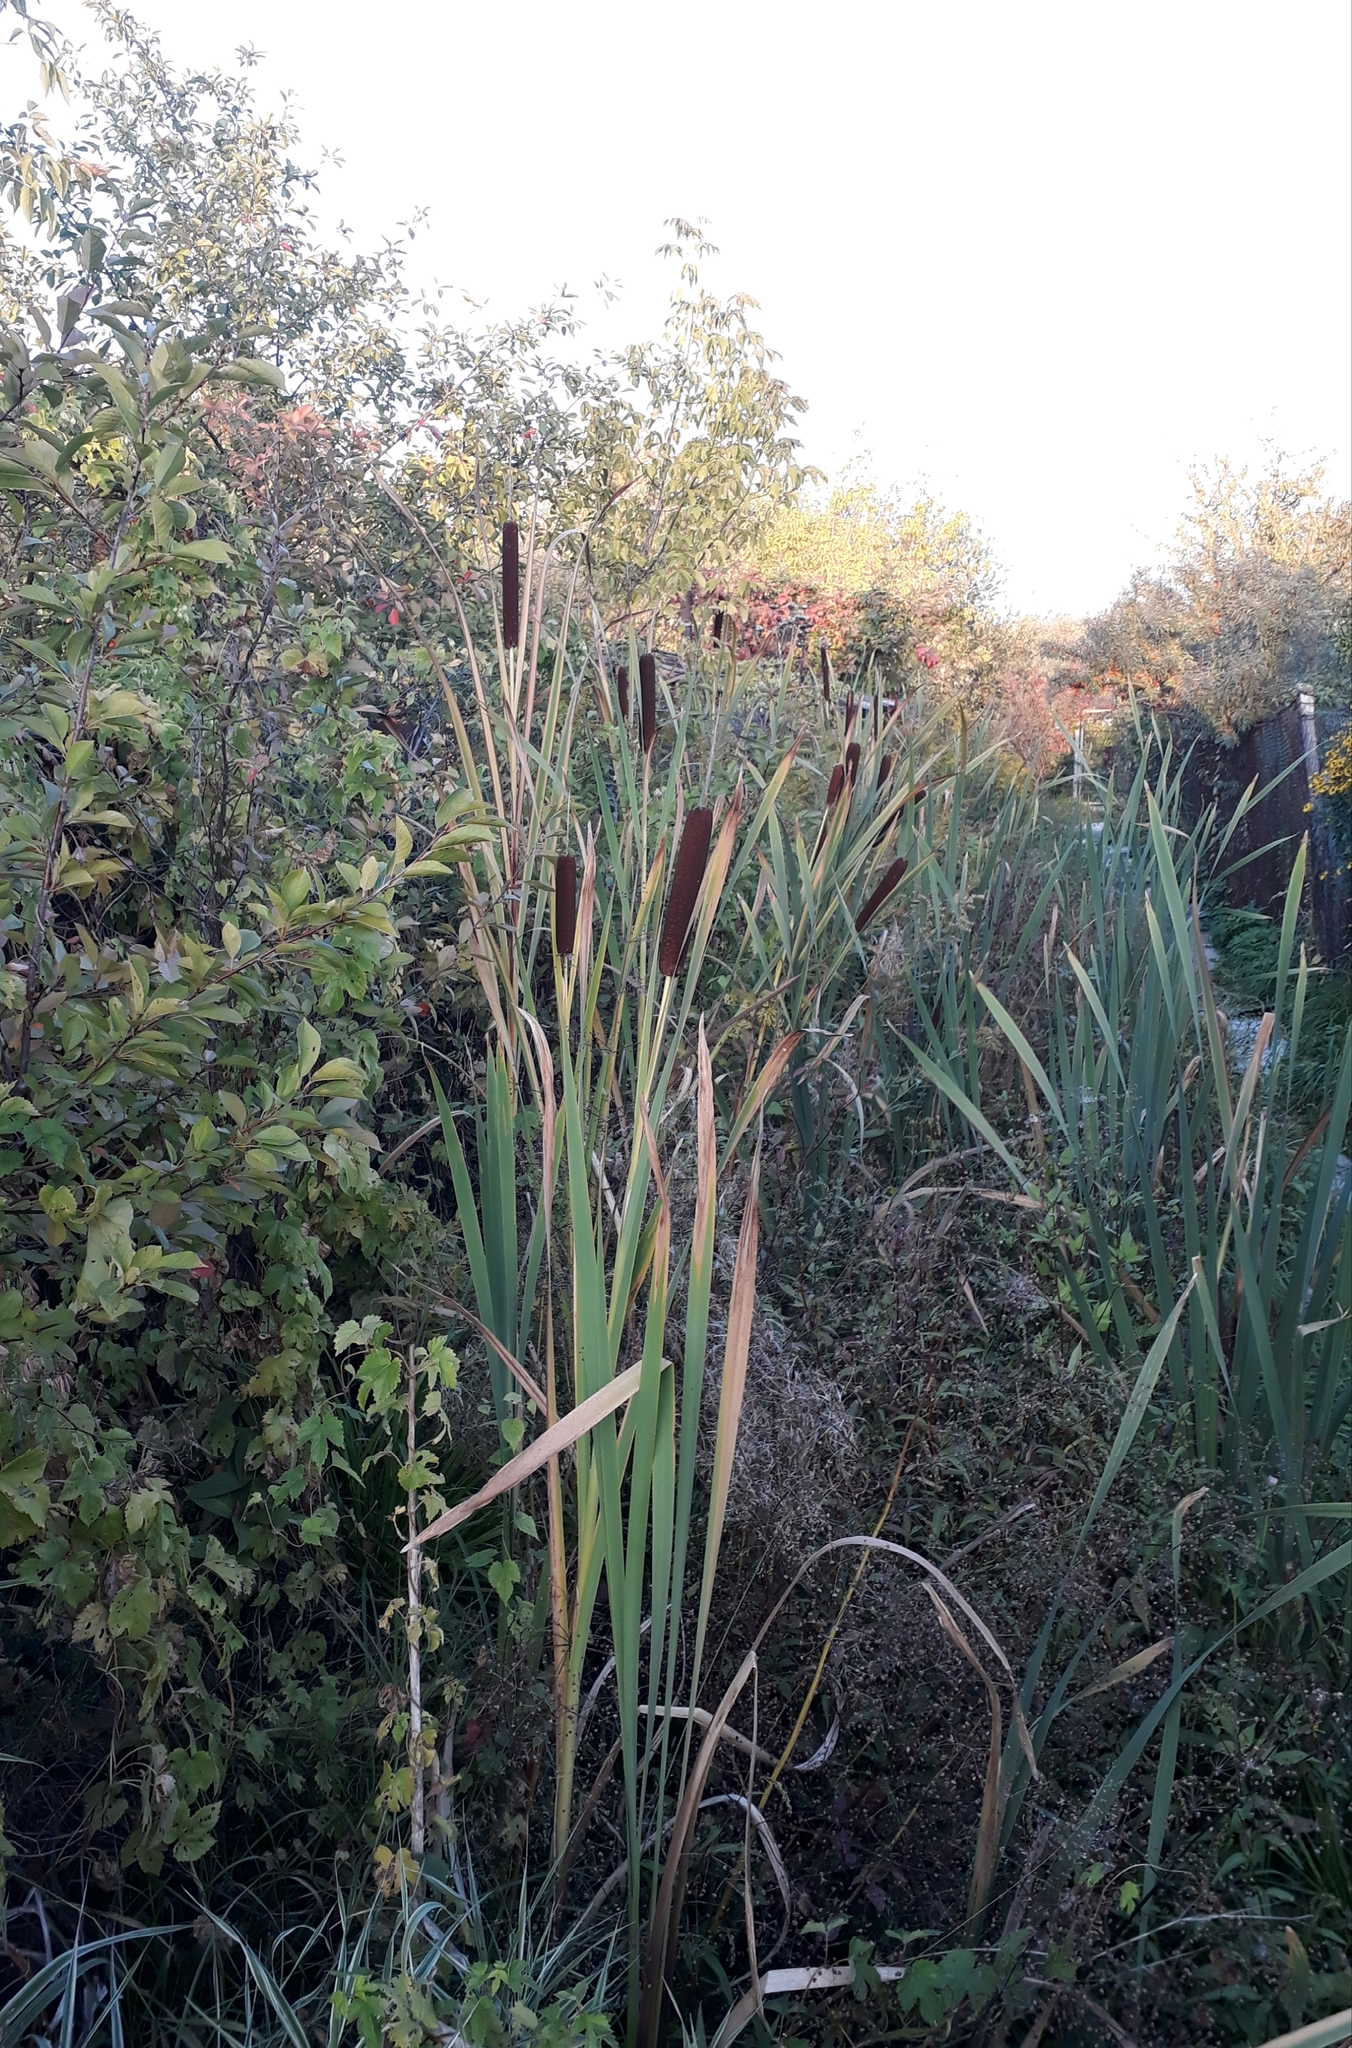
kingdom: Plantae
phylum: Tracheophyta
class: Liliopsida
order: Poales
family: Typhaceae
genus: Typha
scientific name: Typha latifolia
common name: Broadleaf cattail
